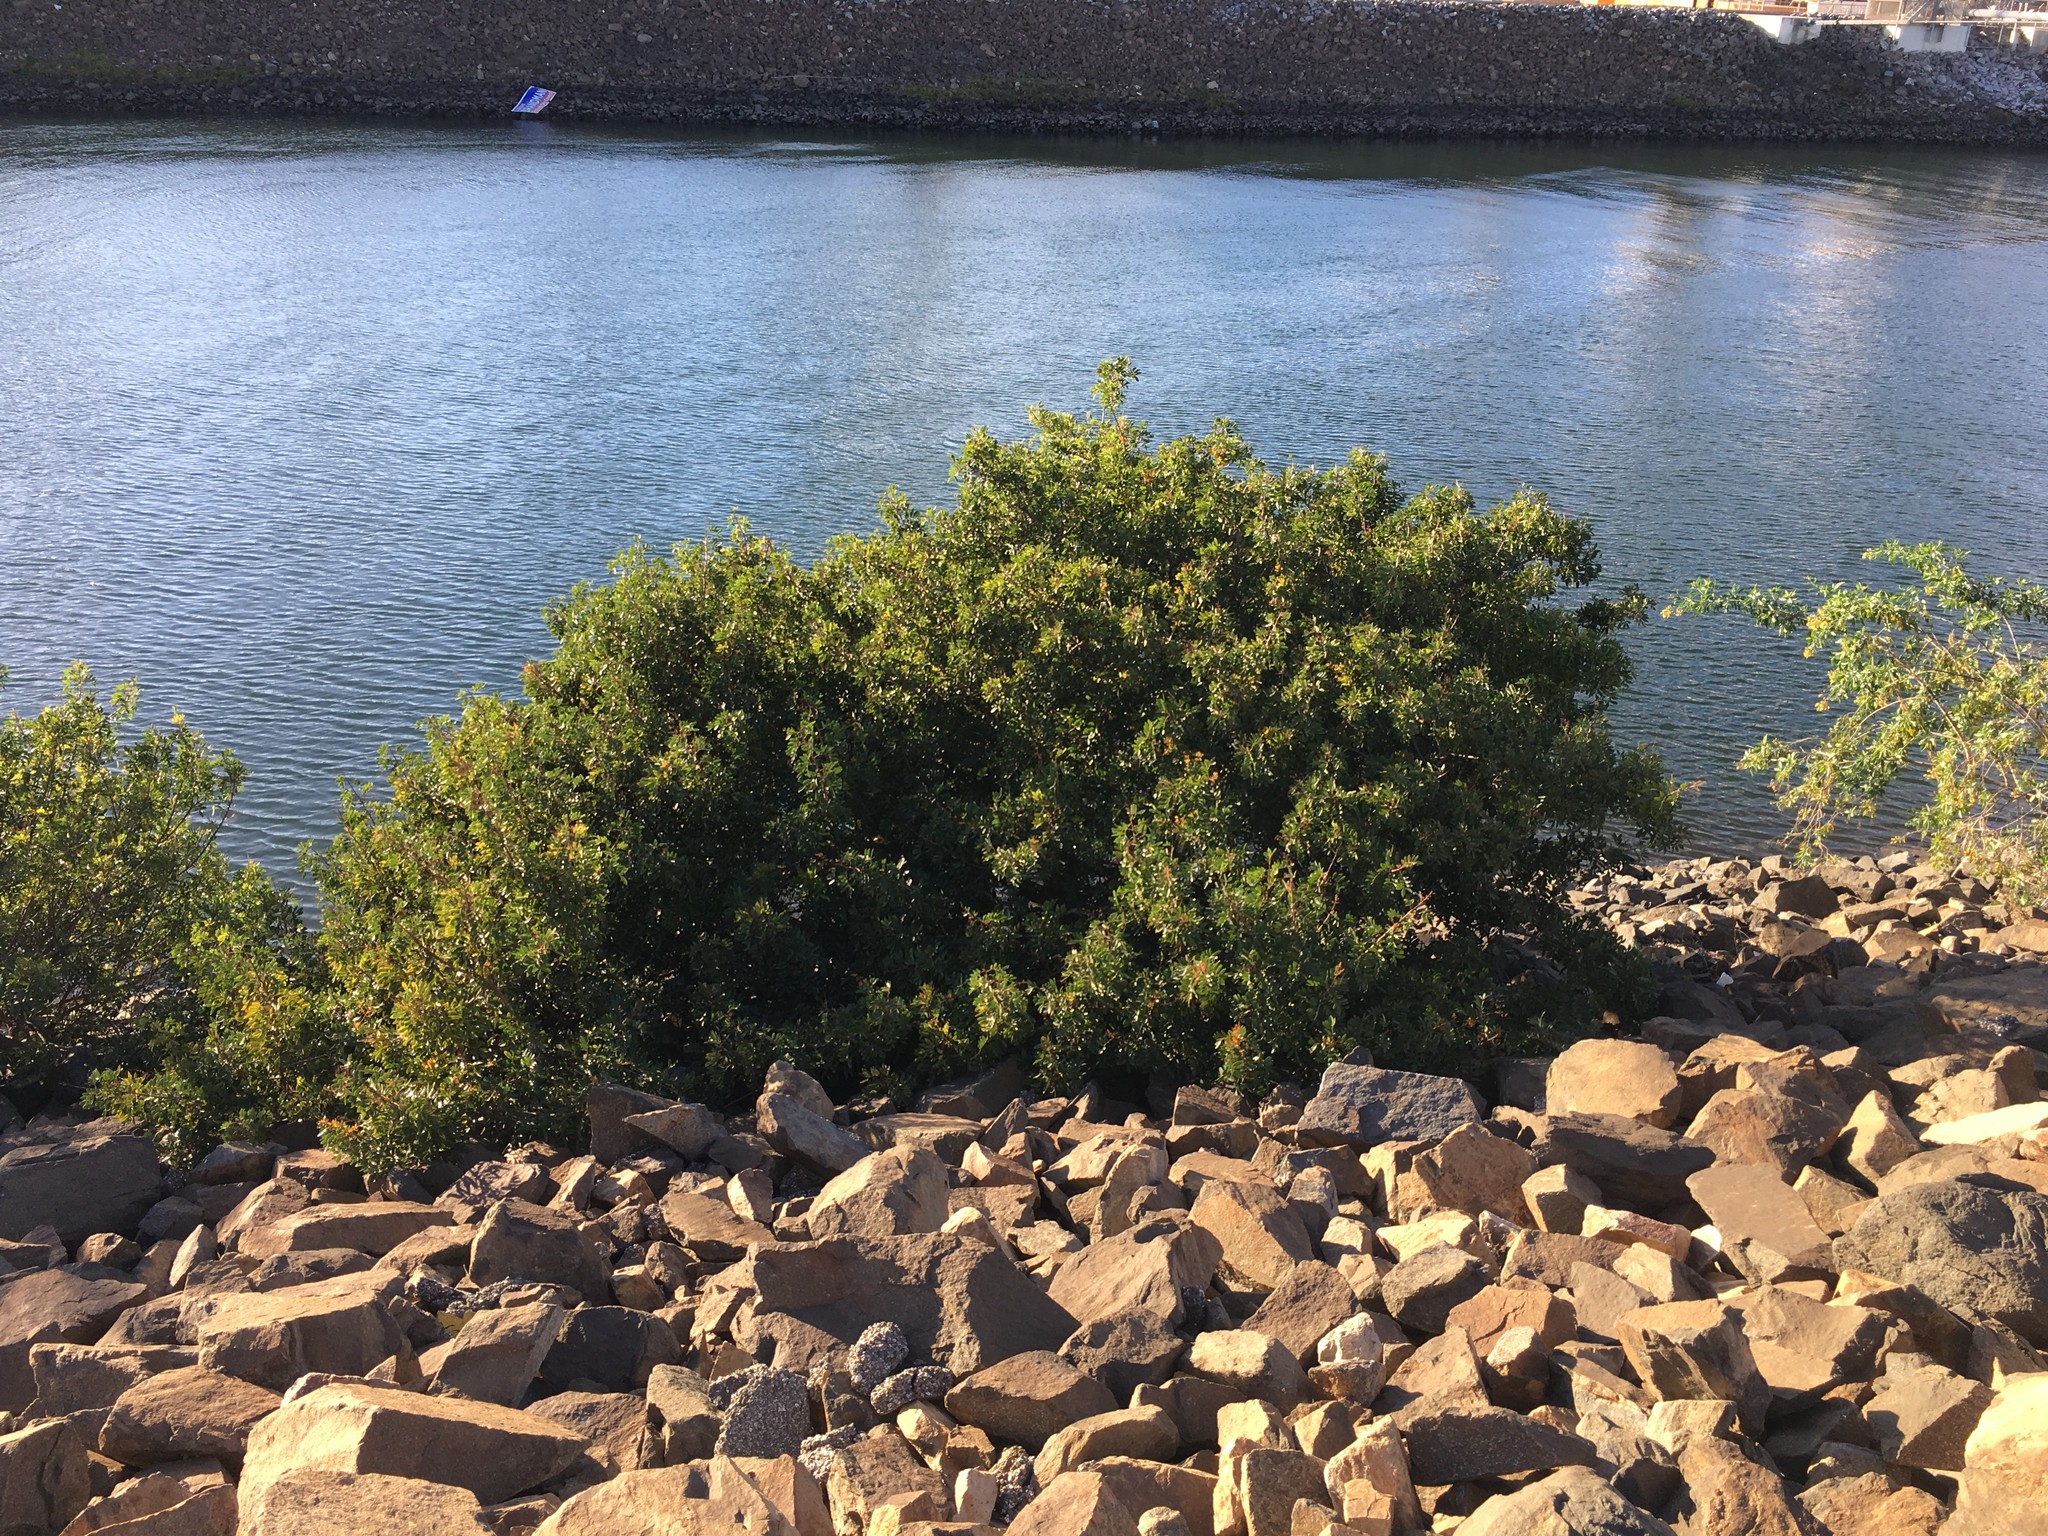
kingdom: Plantae
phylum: Tracheophyta
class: Magnoliopsida
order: Sapindales
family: Anacardiaceae
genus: Schinus
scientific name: Schinus terebinthifolia
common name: Brazilian peppertree
